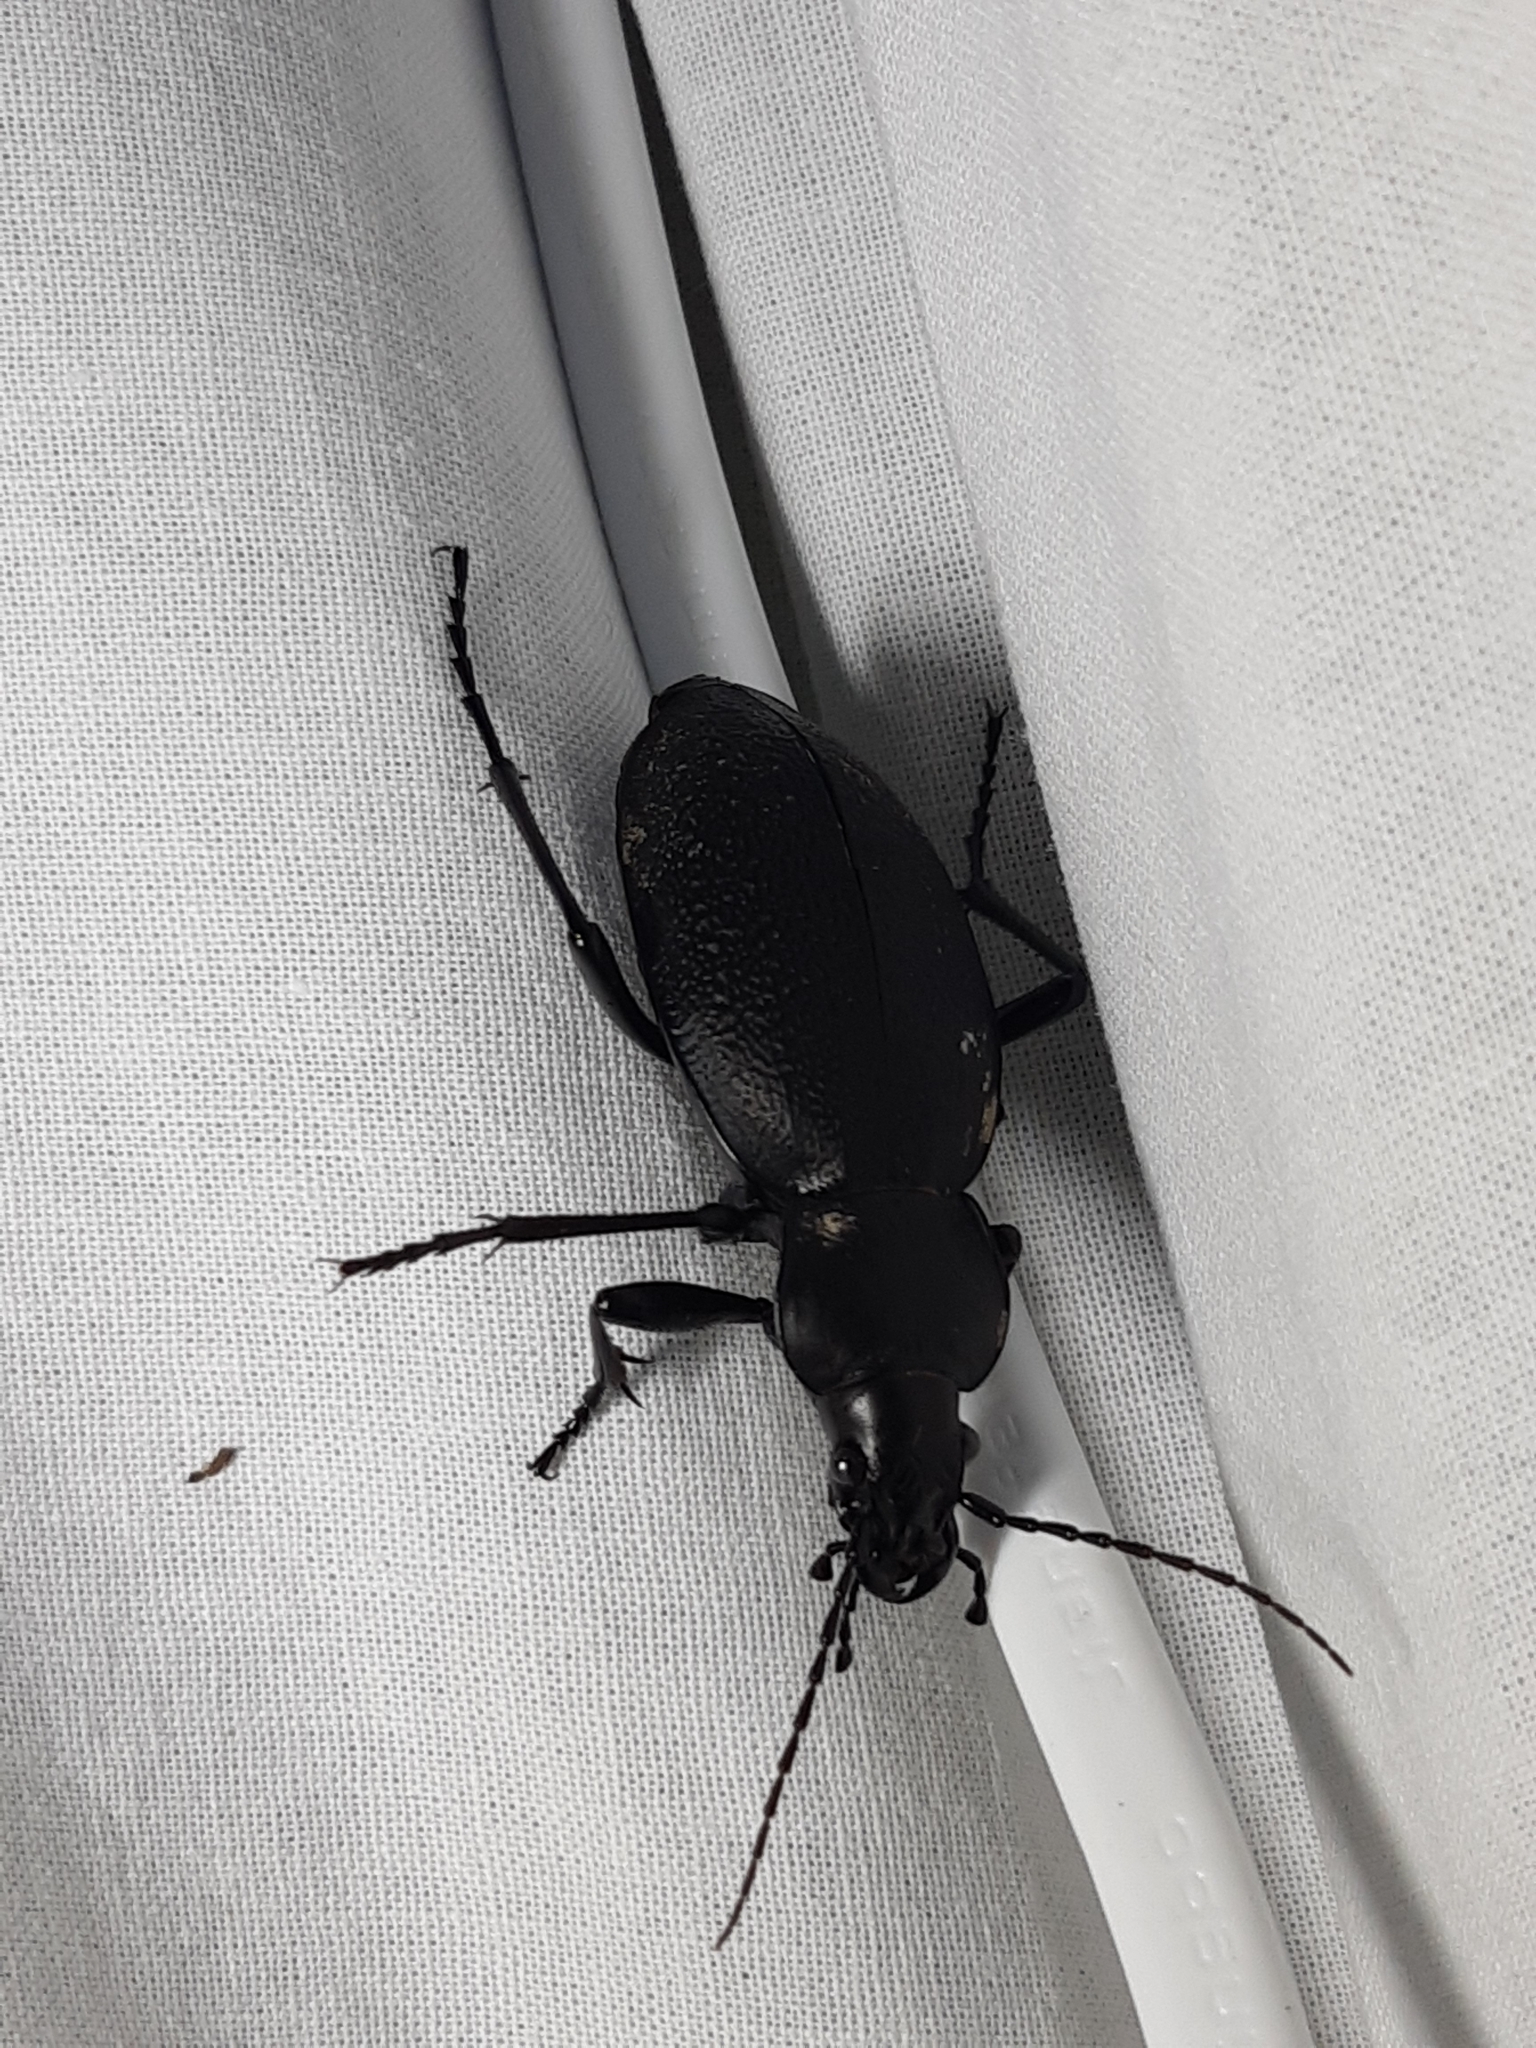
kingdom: Animalia
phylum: Arthropoda
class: Insecta
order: Coleoptera
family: Carabidae
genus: Carabus
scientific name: Carabus coriaceus
